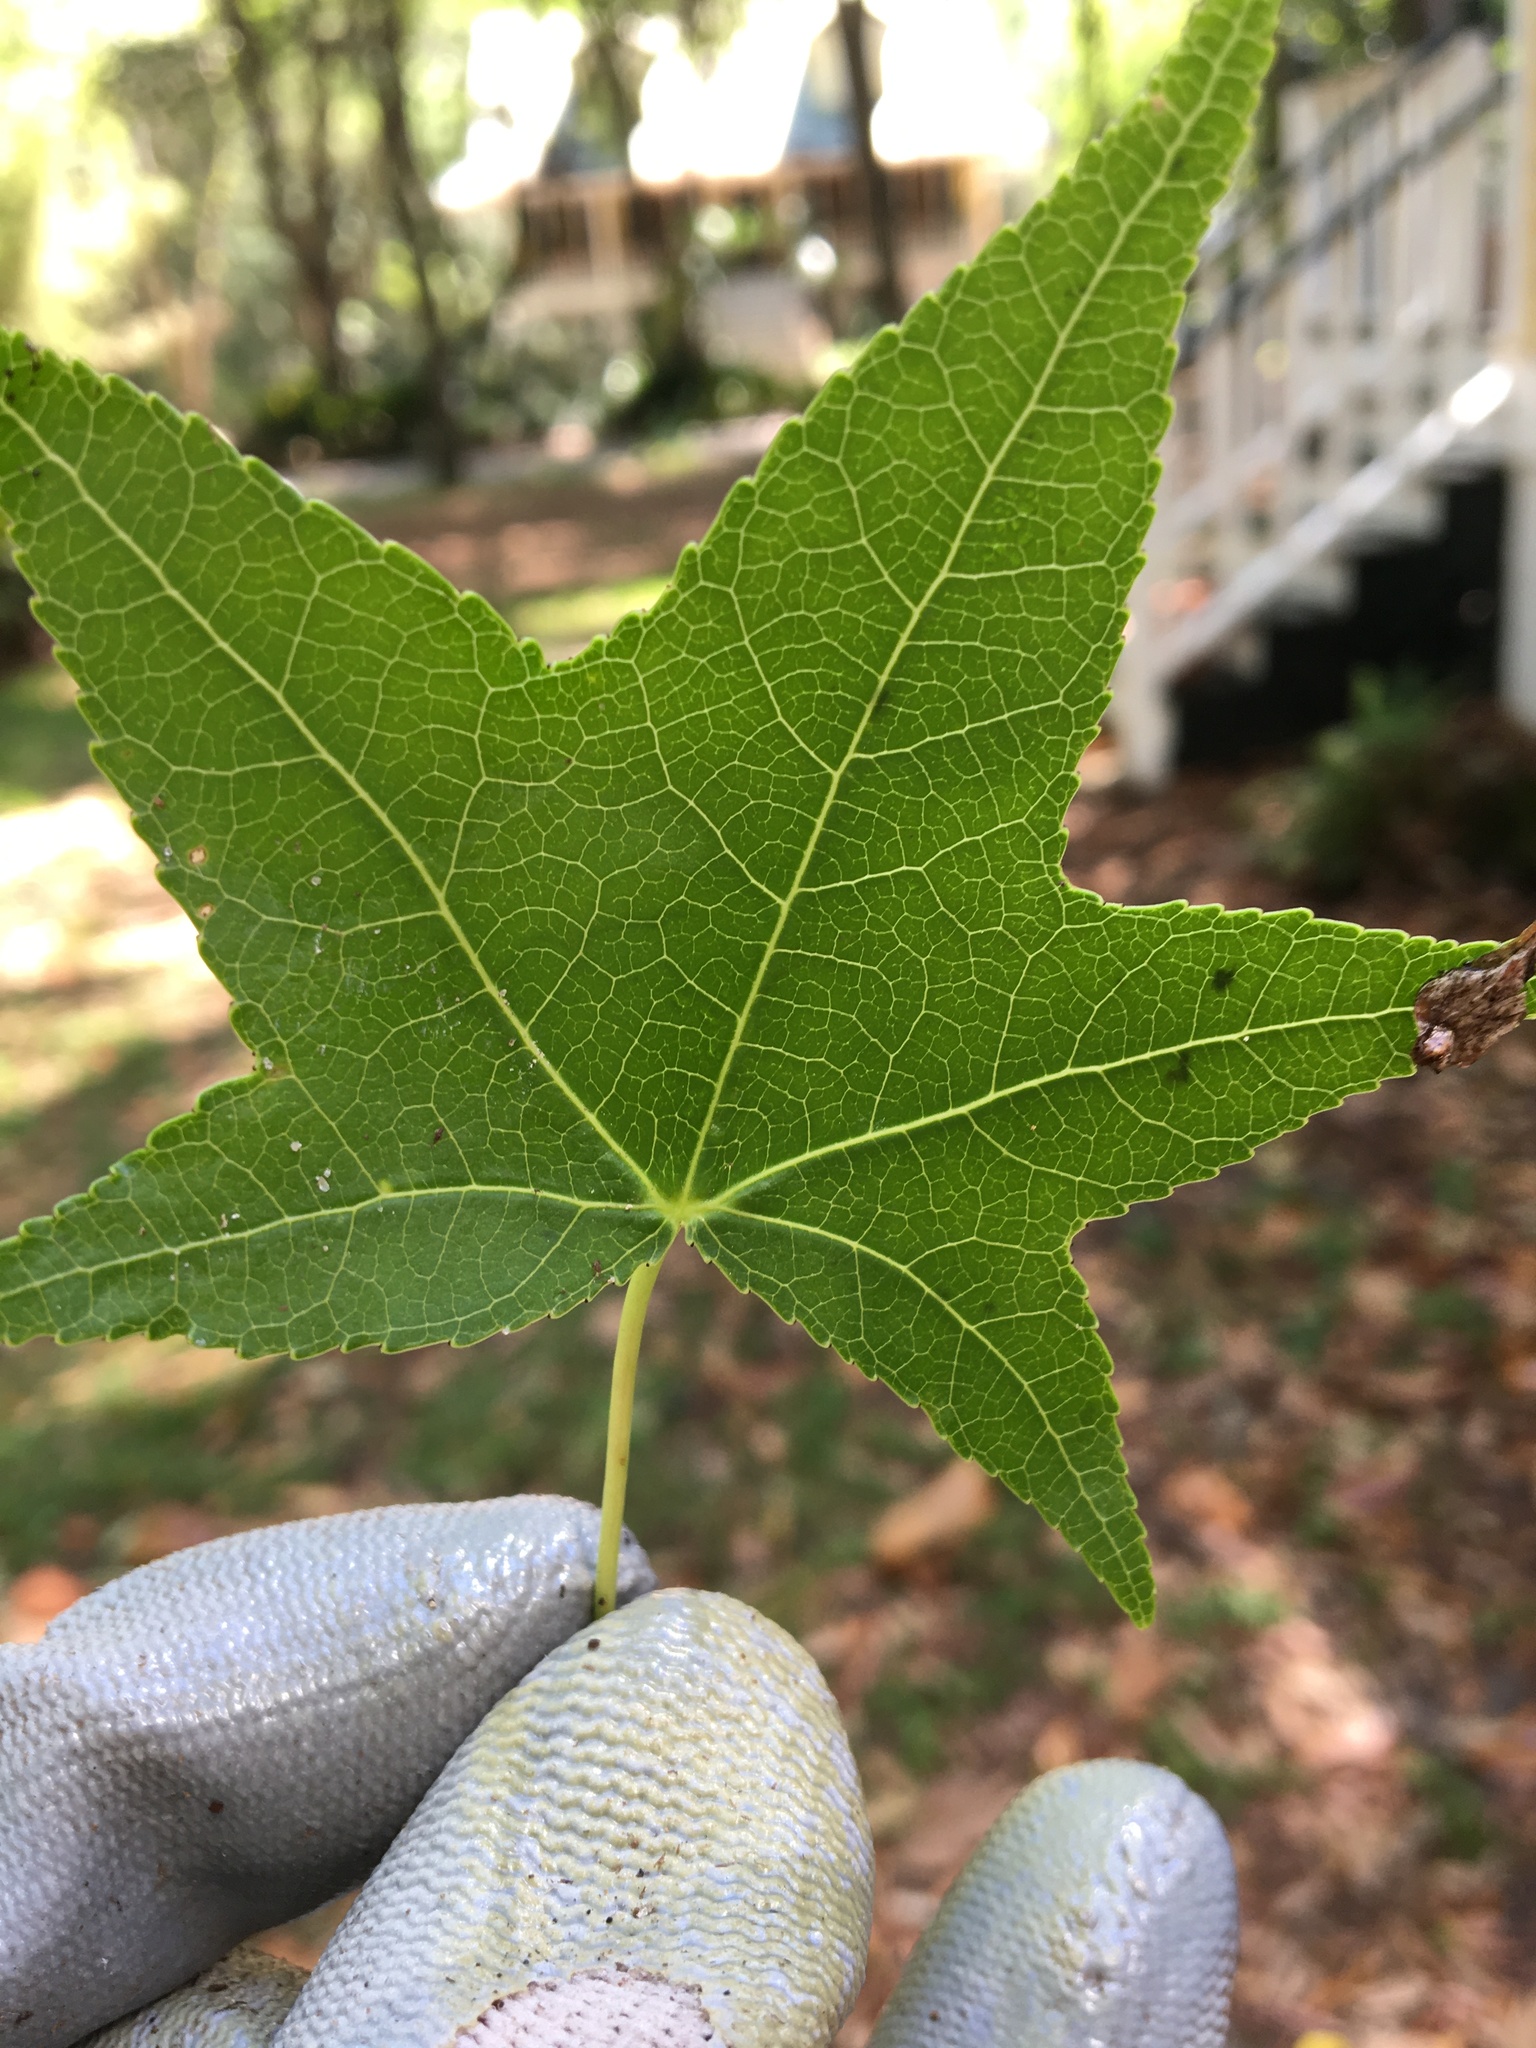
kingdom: Plantae
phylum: Tracheophyta
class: Magnoliopsida
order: Saxifragales
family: Altingiaceae
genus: Liquidambar
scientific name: Liquidambar styraciflua
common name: Sweet gum
